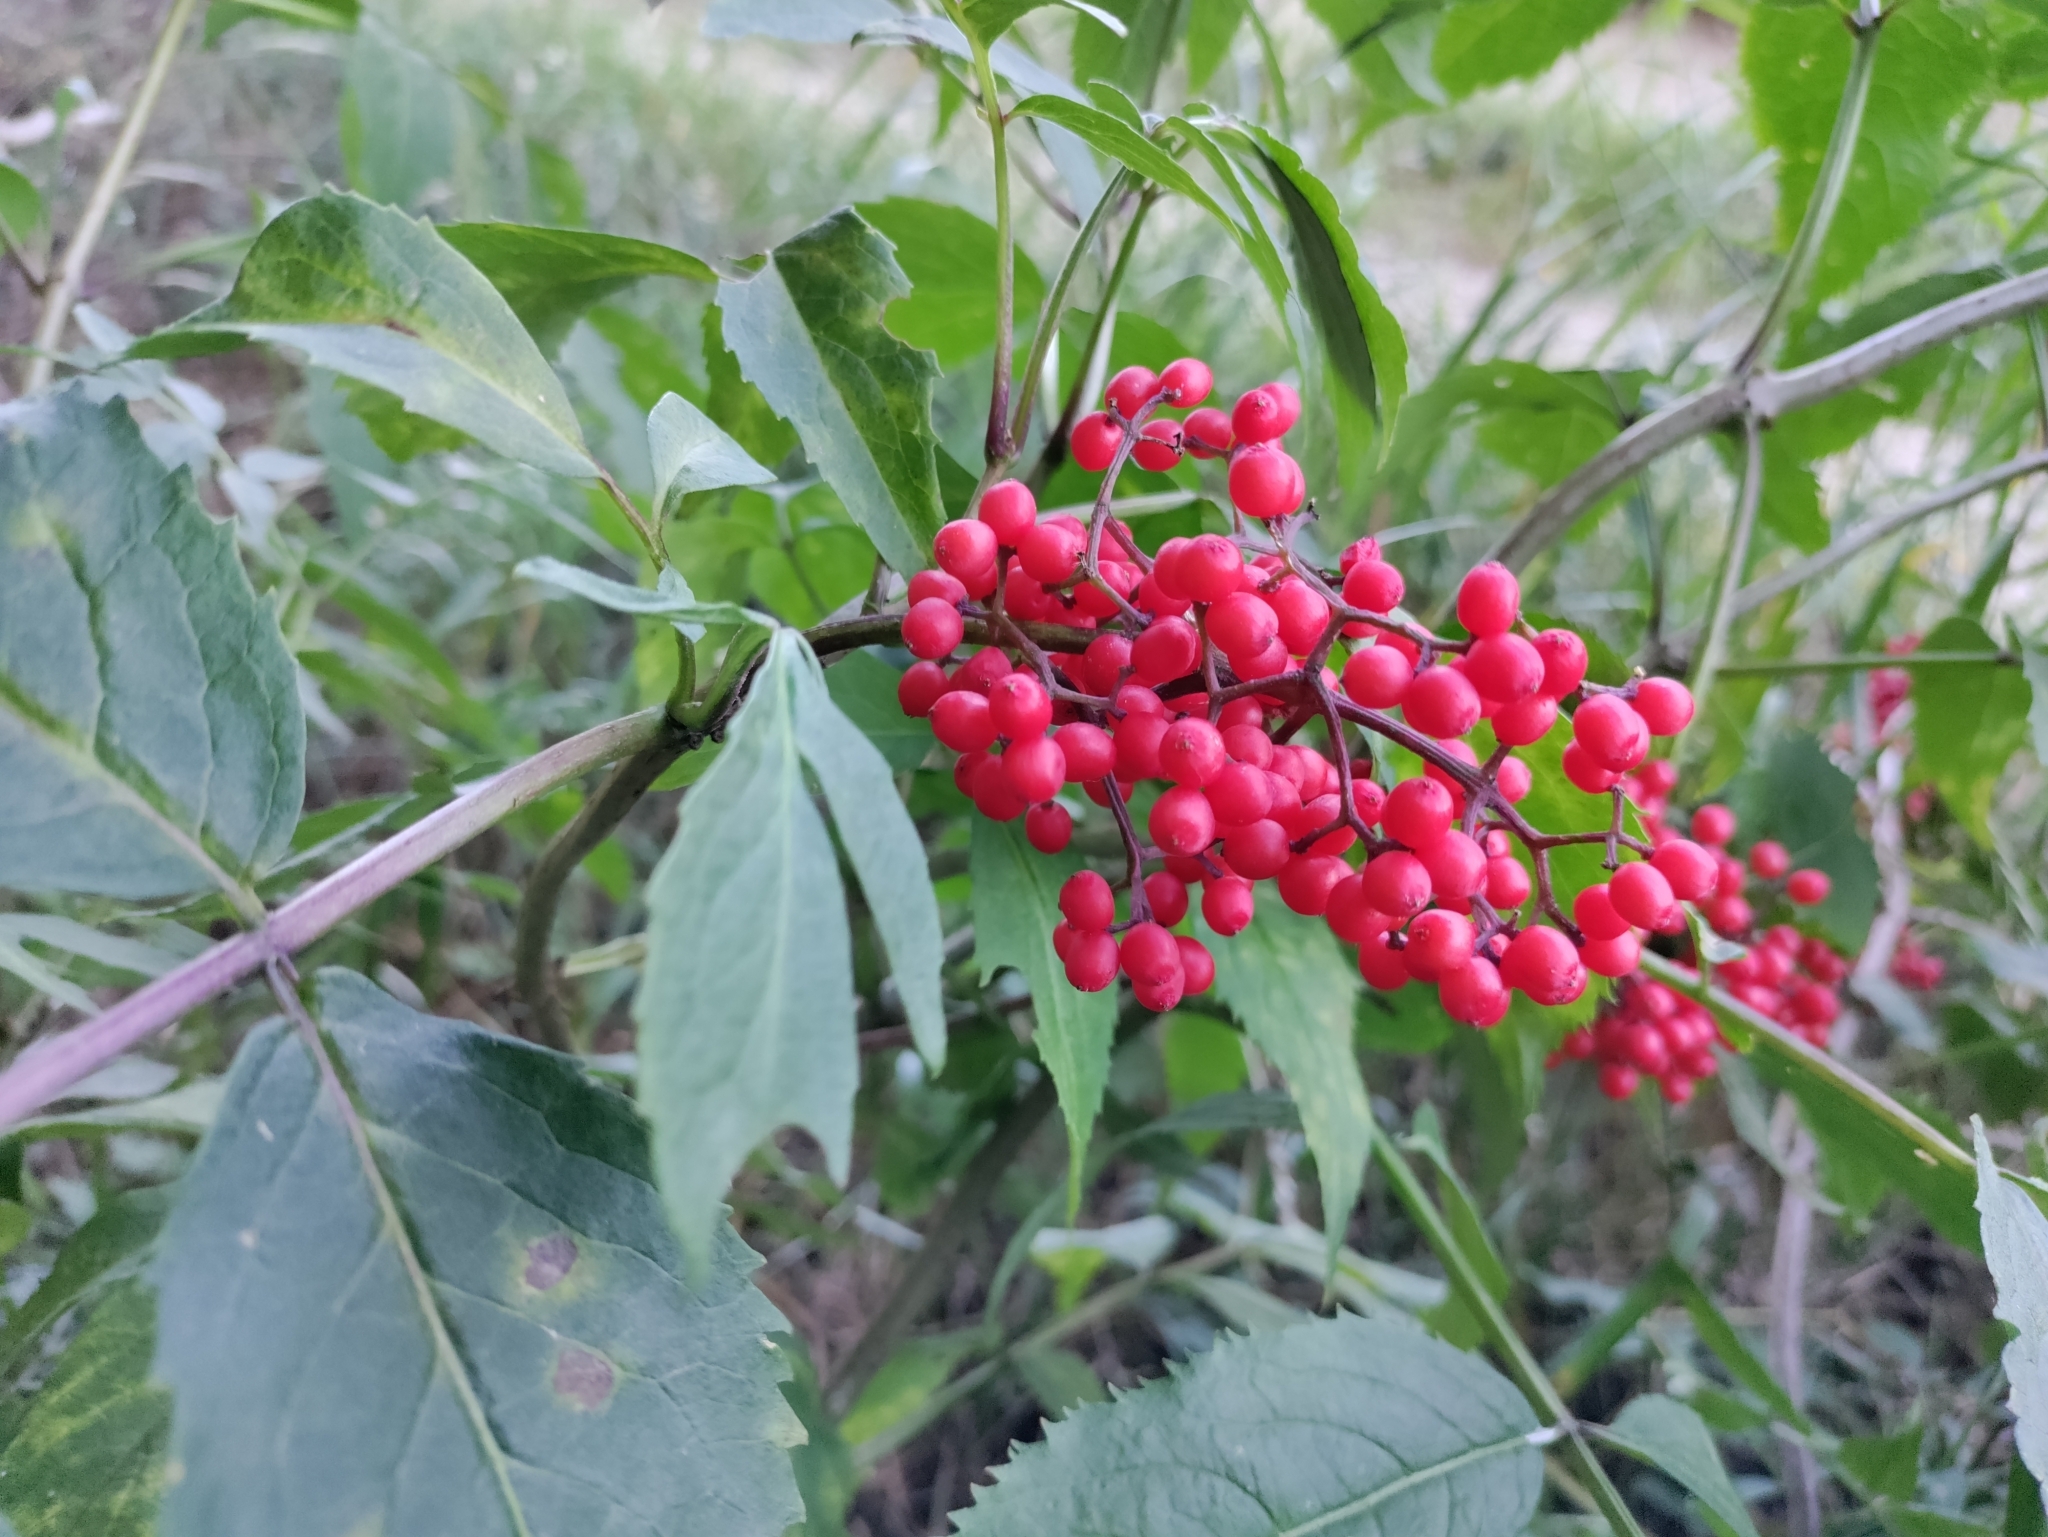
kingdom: Plantae
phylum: Tracheophyta
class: Magnoliopsida
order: Dipsacales
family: Viburnaceae
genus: Sambucus
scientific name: Sambucus racemosa
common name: Red-berried elder
